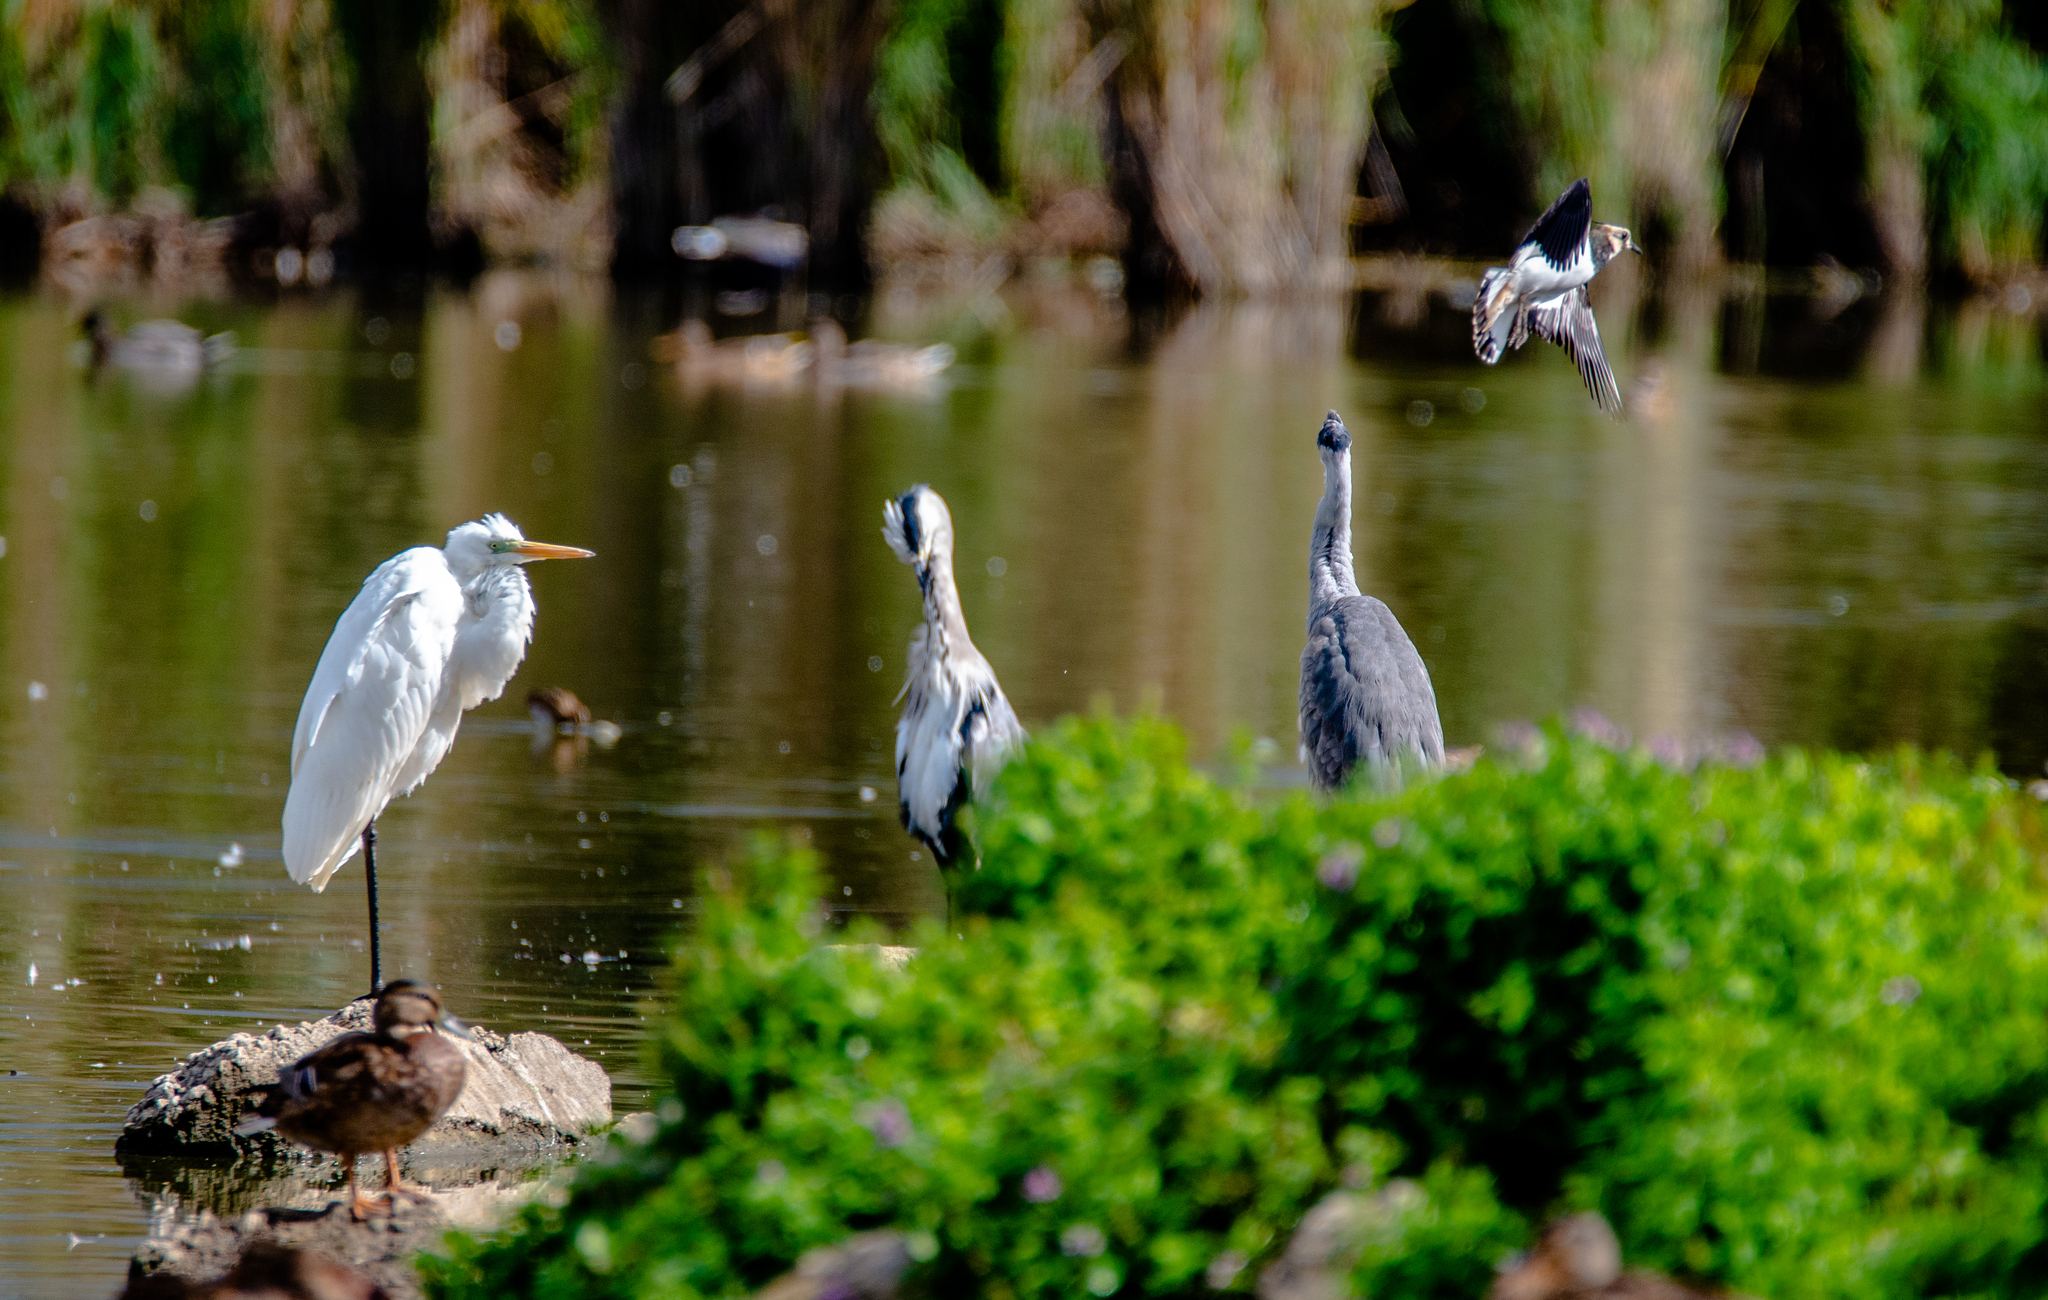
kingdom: Animalia
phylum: Chordata
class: Aves
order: Charadriiformes
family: Charadriidae
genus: Vanellus
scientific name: Vanellus vanellus
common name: Northern lapwing
